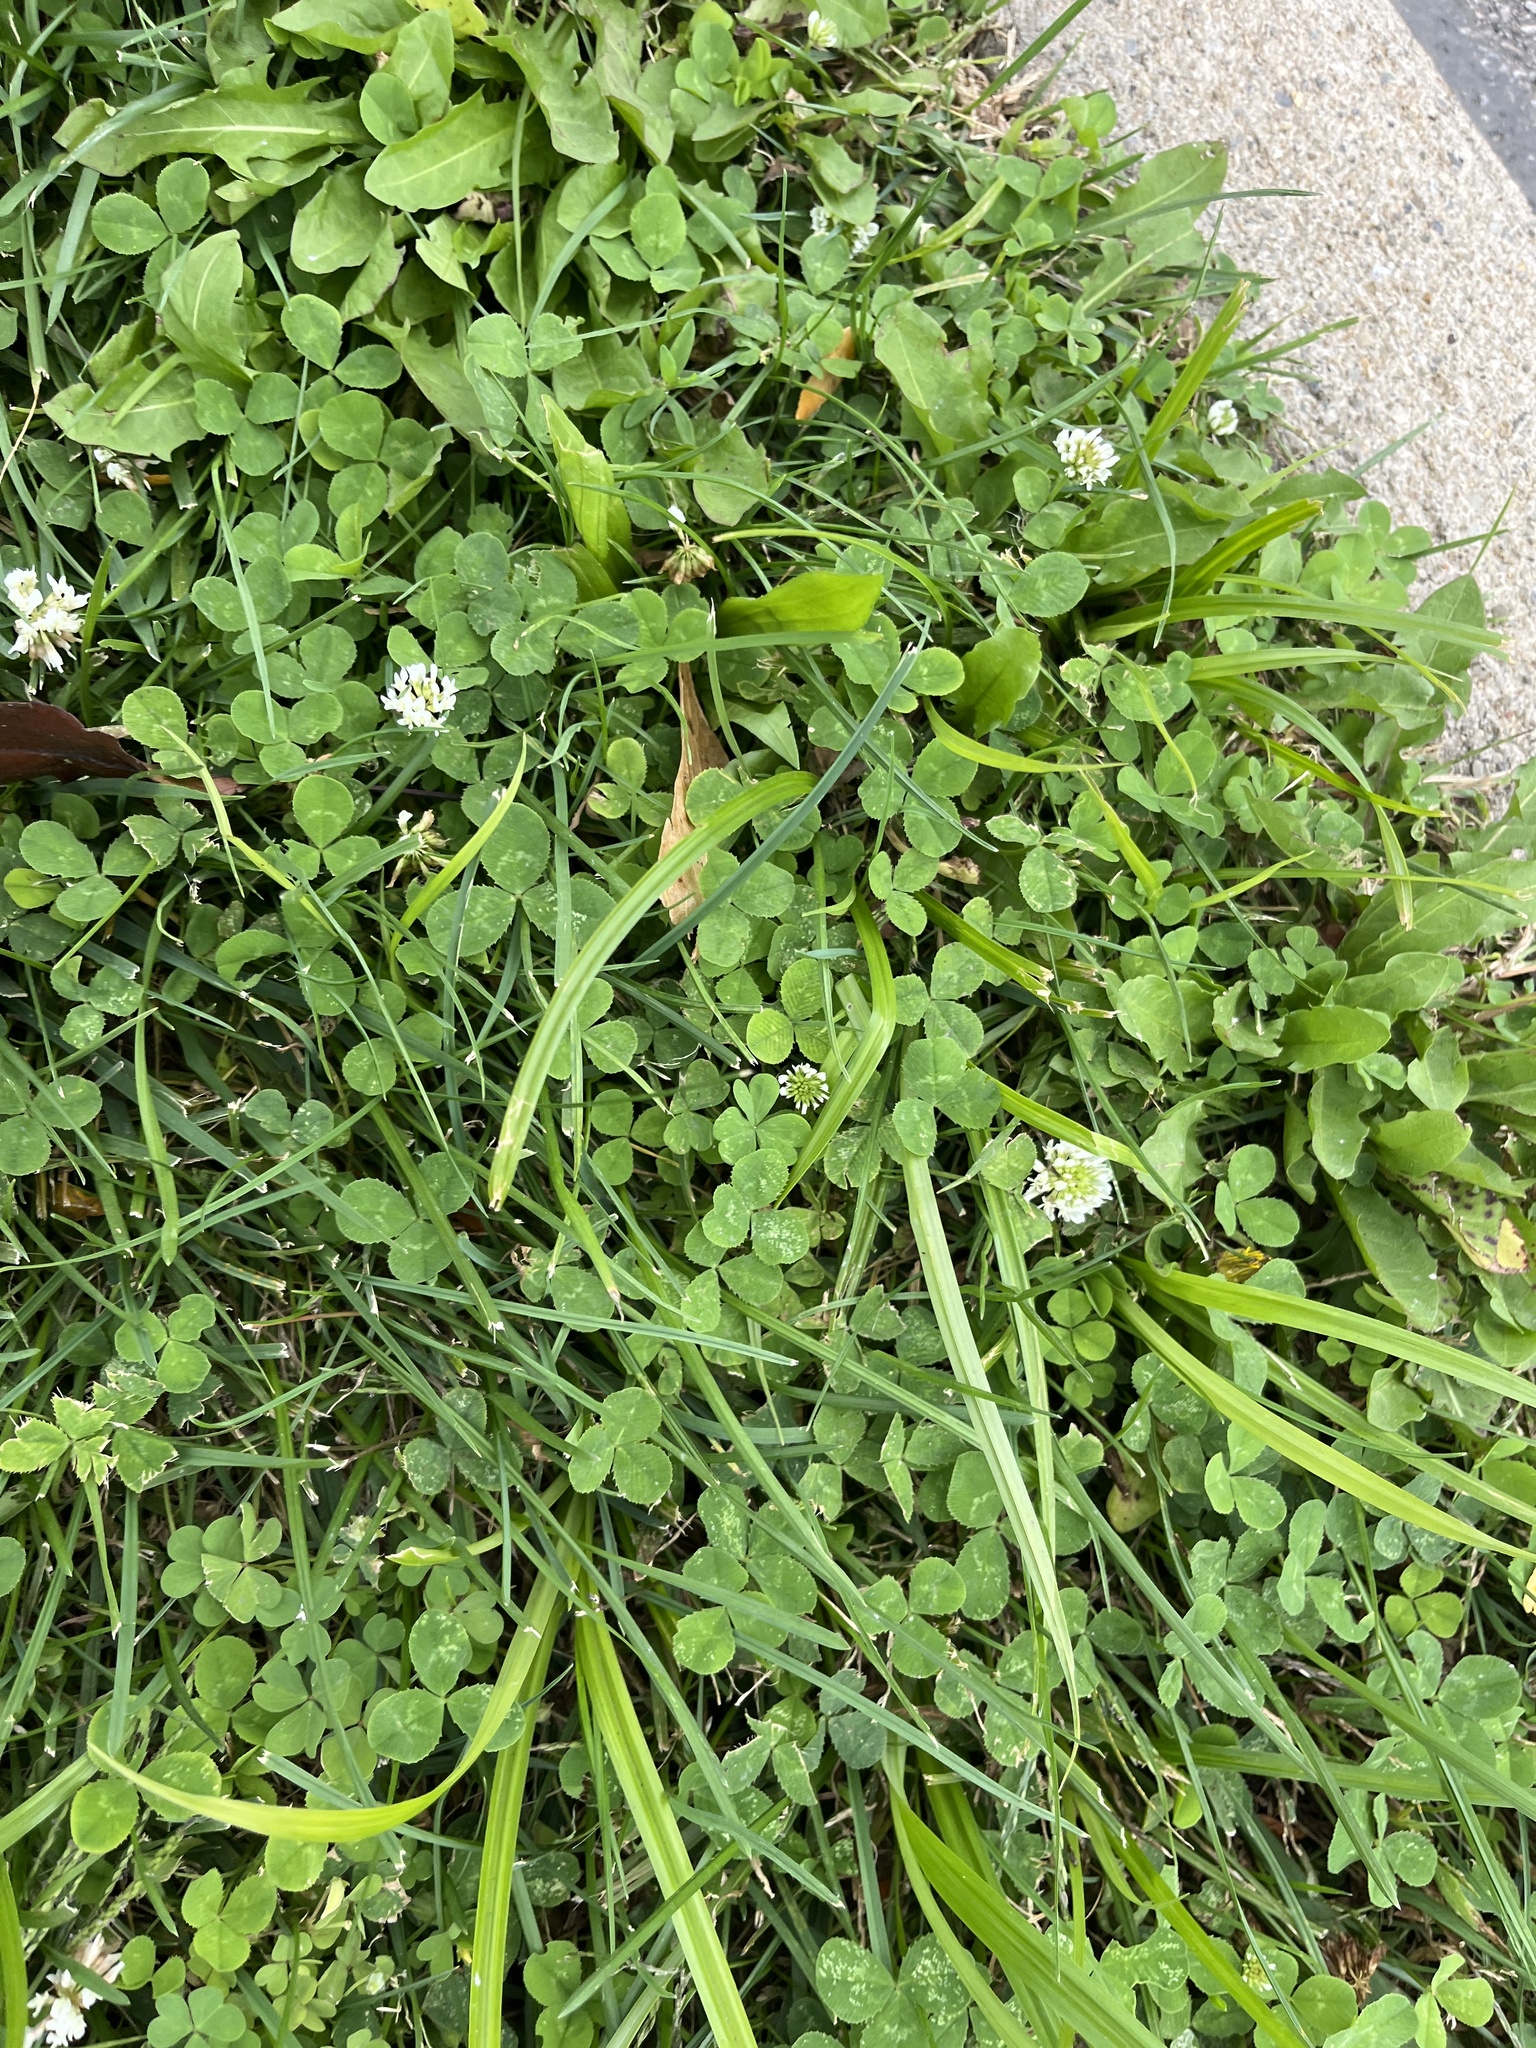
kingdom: Plantae
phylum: Tracheophyta
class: Magnoliopsida
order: Fabales
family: Fabaceae
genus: Trifolium
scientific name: Trifolium repens
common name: White clover
